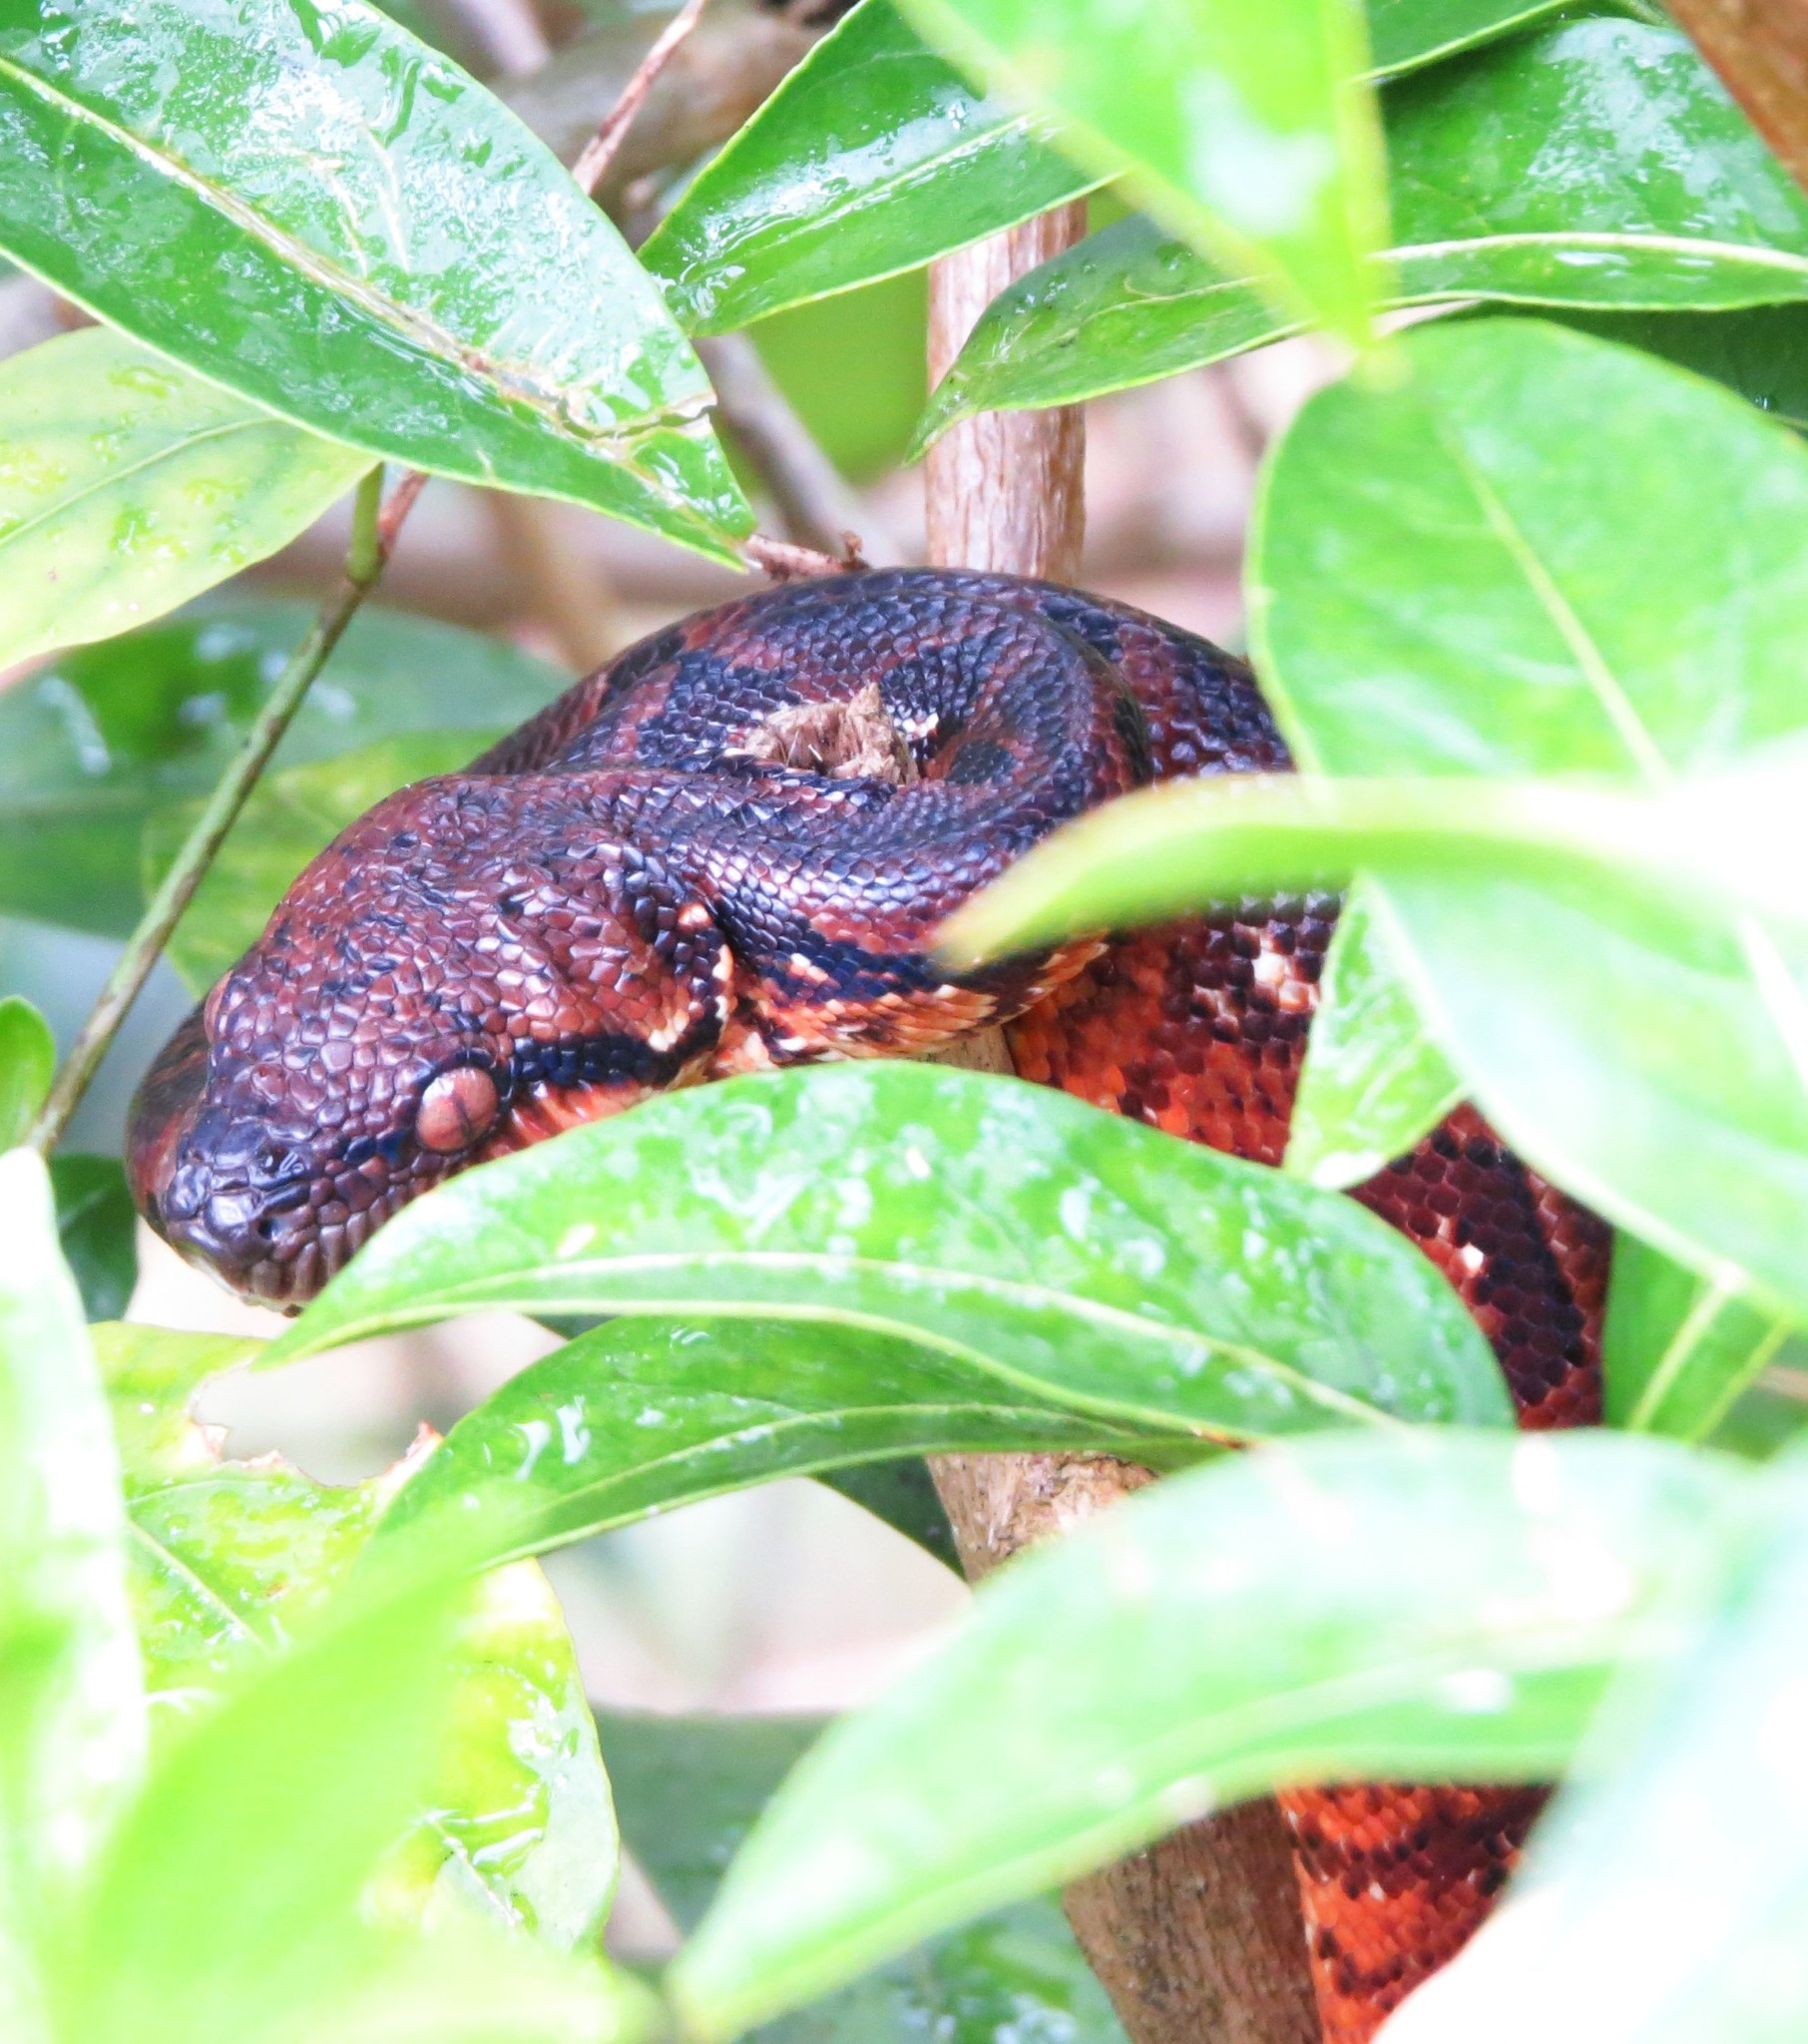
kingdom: Animalia
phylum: Chordata
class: Squamata
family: Boidae
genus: Sanzinia
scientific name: Sanzinia madagascariensis
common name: Madagascar tree boa
